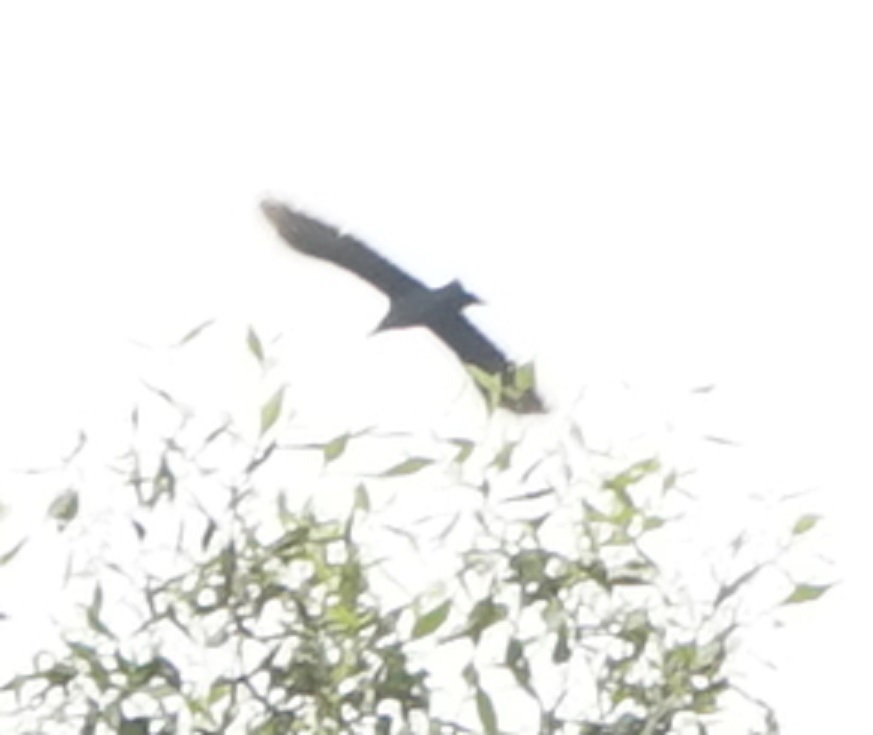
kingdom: Animalia
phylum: Chordata
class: Aves
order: Passeriformes
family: Corvidae
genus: Corvus
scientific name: Corvus splendens
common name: House crow
